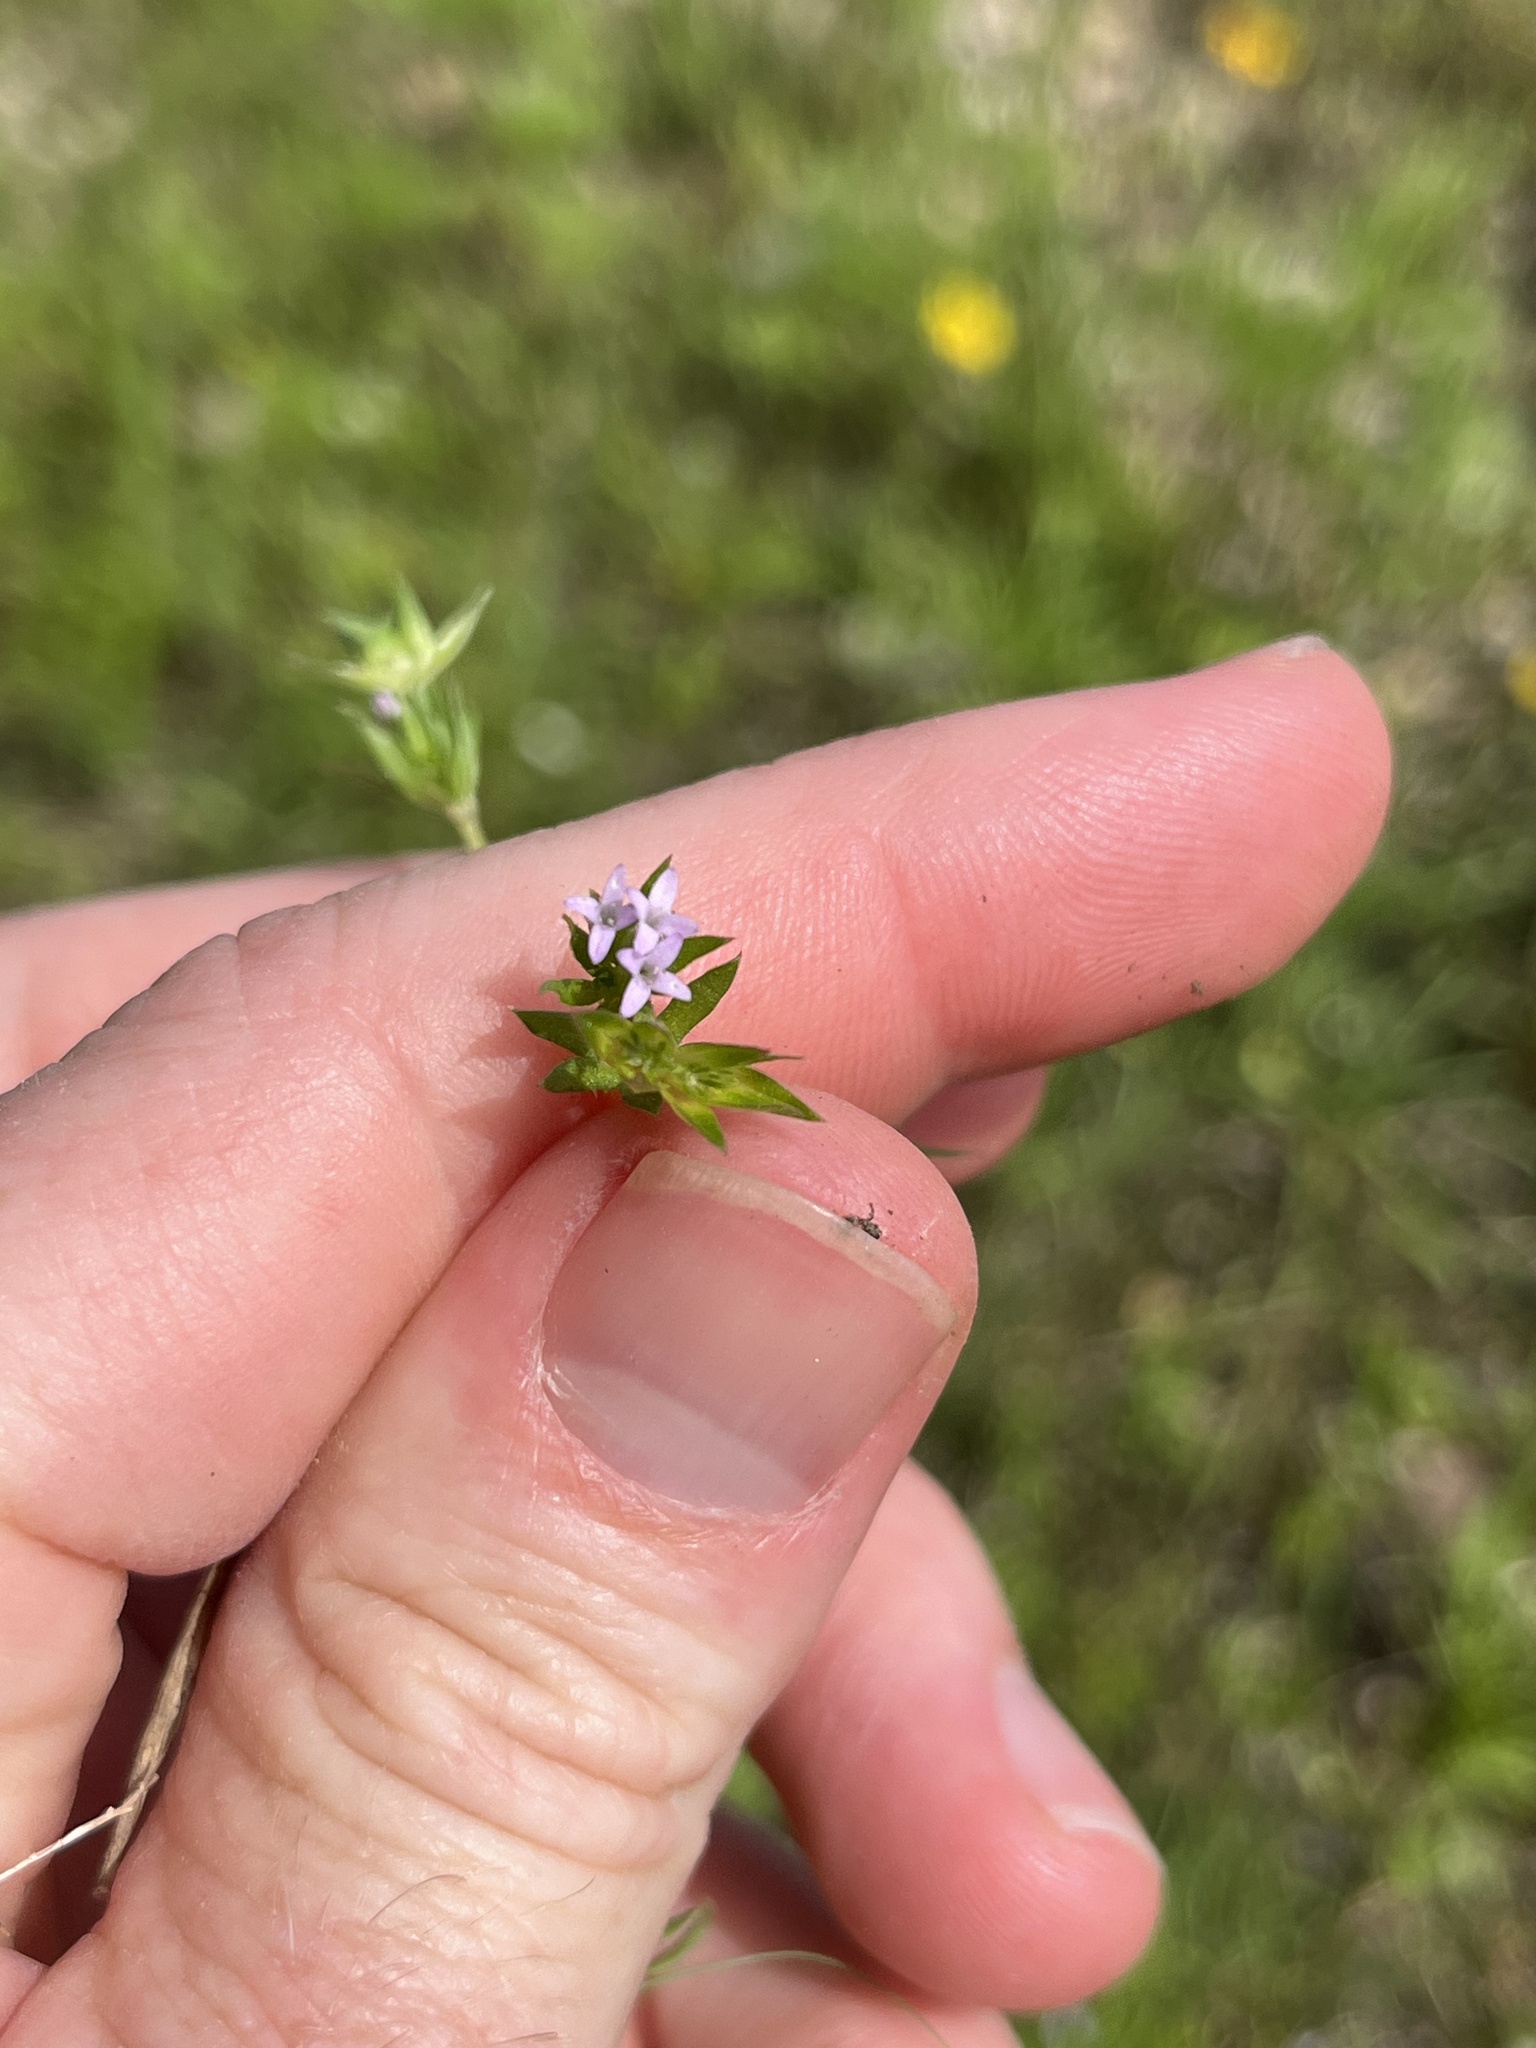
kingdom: Plantae
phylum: Tracheophyta
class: Magnoliopsida
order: Gentianales
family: Rubiaceae
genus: Sherardia
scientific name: Sherardia arvensis
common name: Field madder
